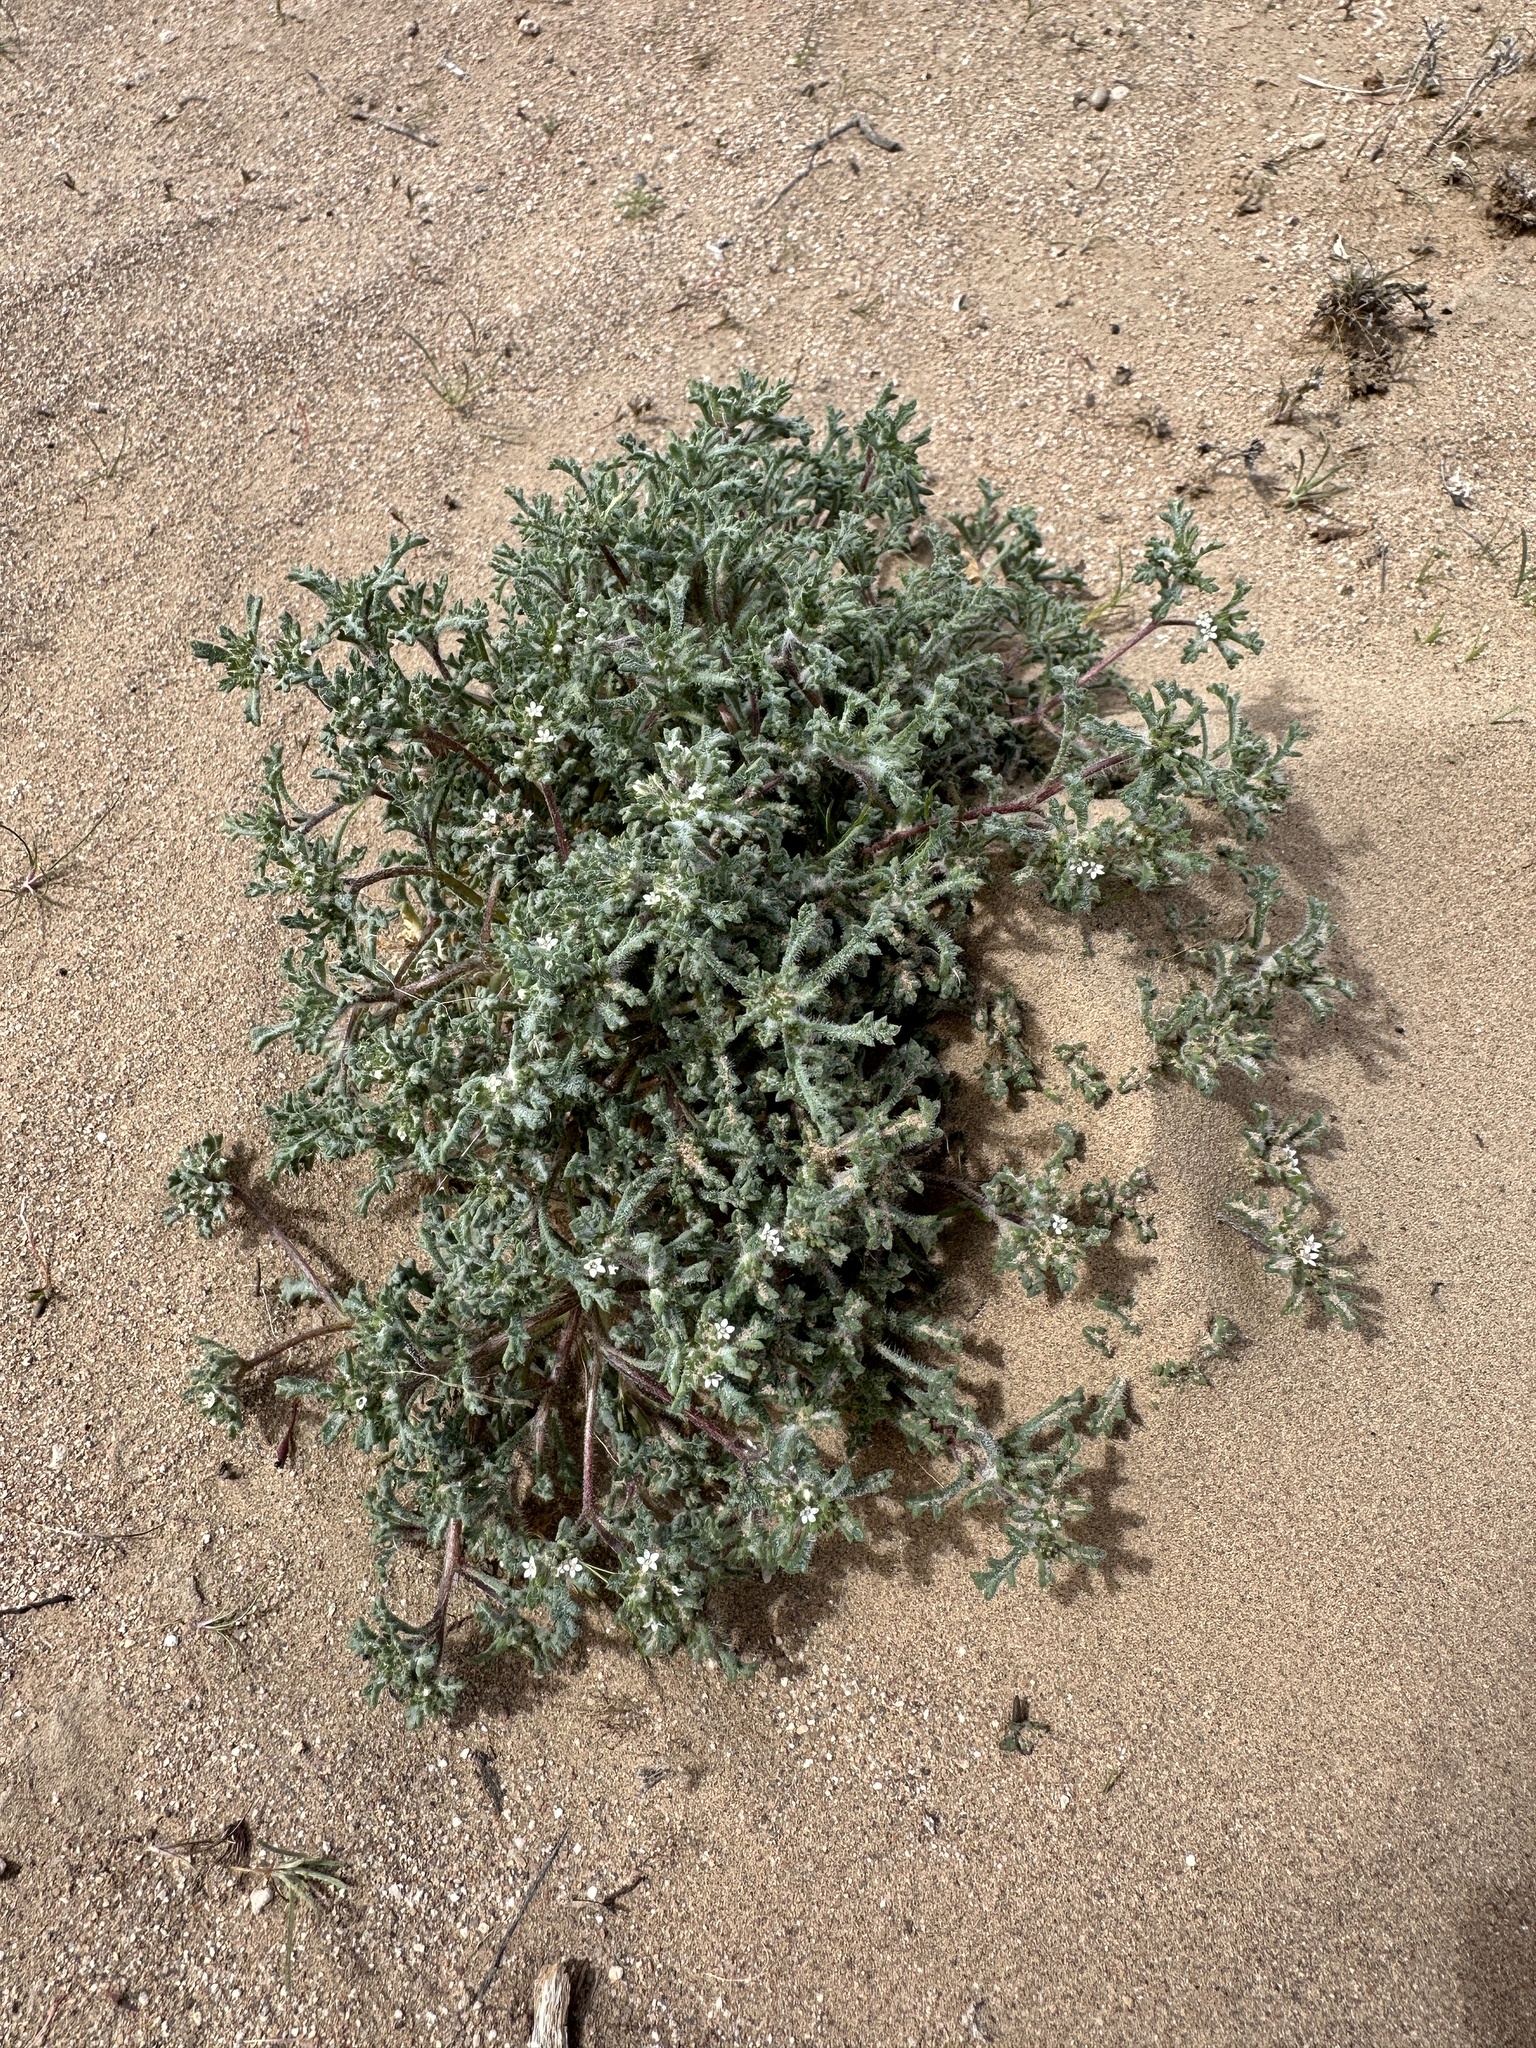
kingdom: Plantae
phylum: Tracheophyta
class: Magnoliopsida
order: Ericales
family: Polemoniaceae
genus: Ipomopsis
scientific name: Ipomopsis polycladon
